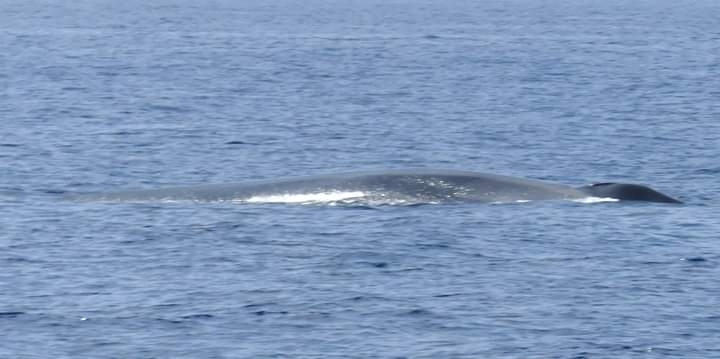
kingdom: Animalia
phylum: Chordata
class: Mammalia
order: Cetacea
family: Balaenopteridae
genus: Balaenoptera
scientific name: Balaenoptera physalus
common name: Fin whale
